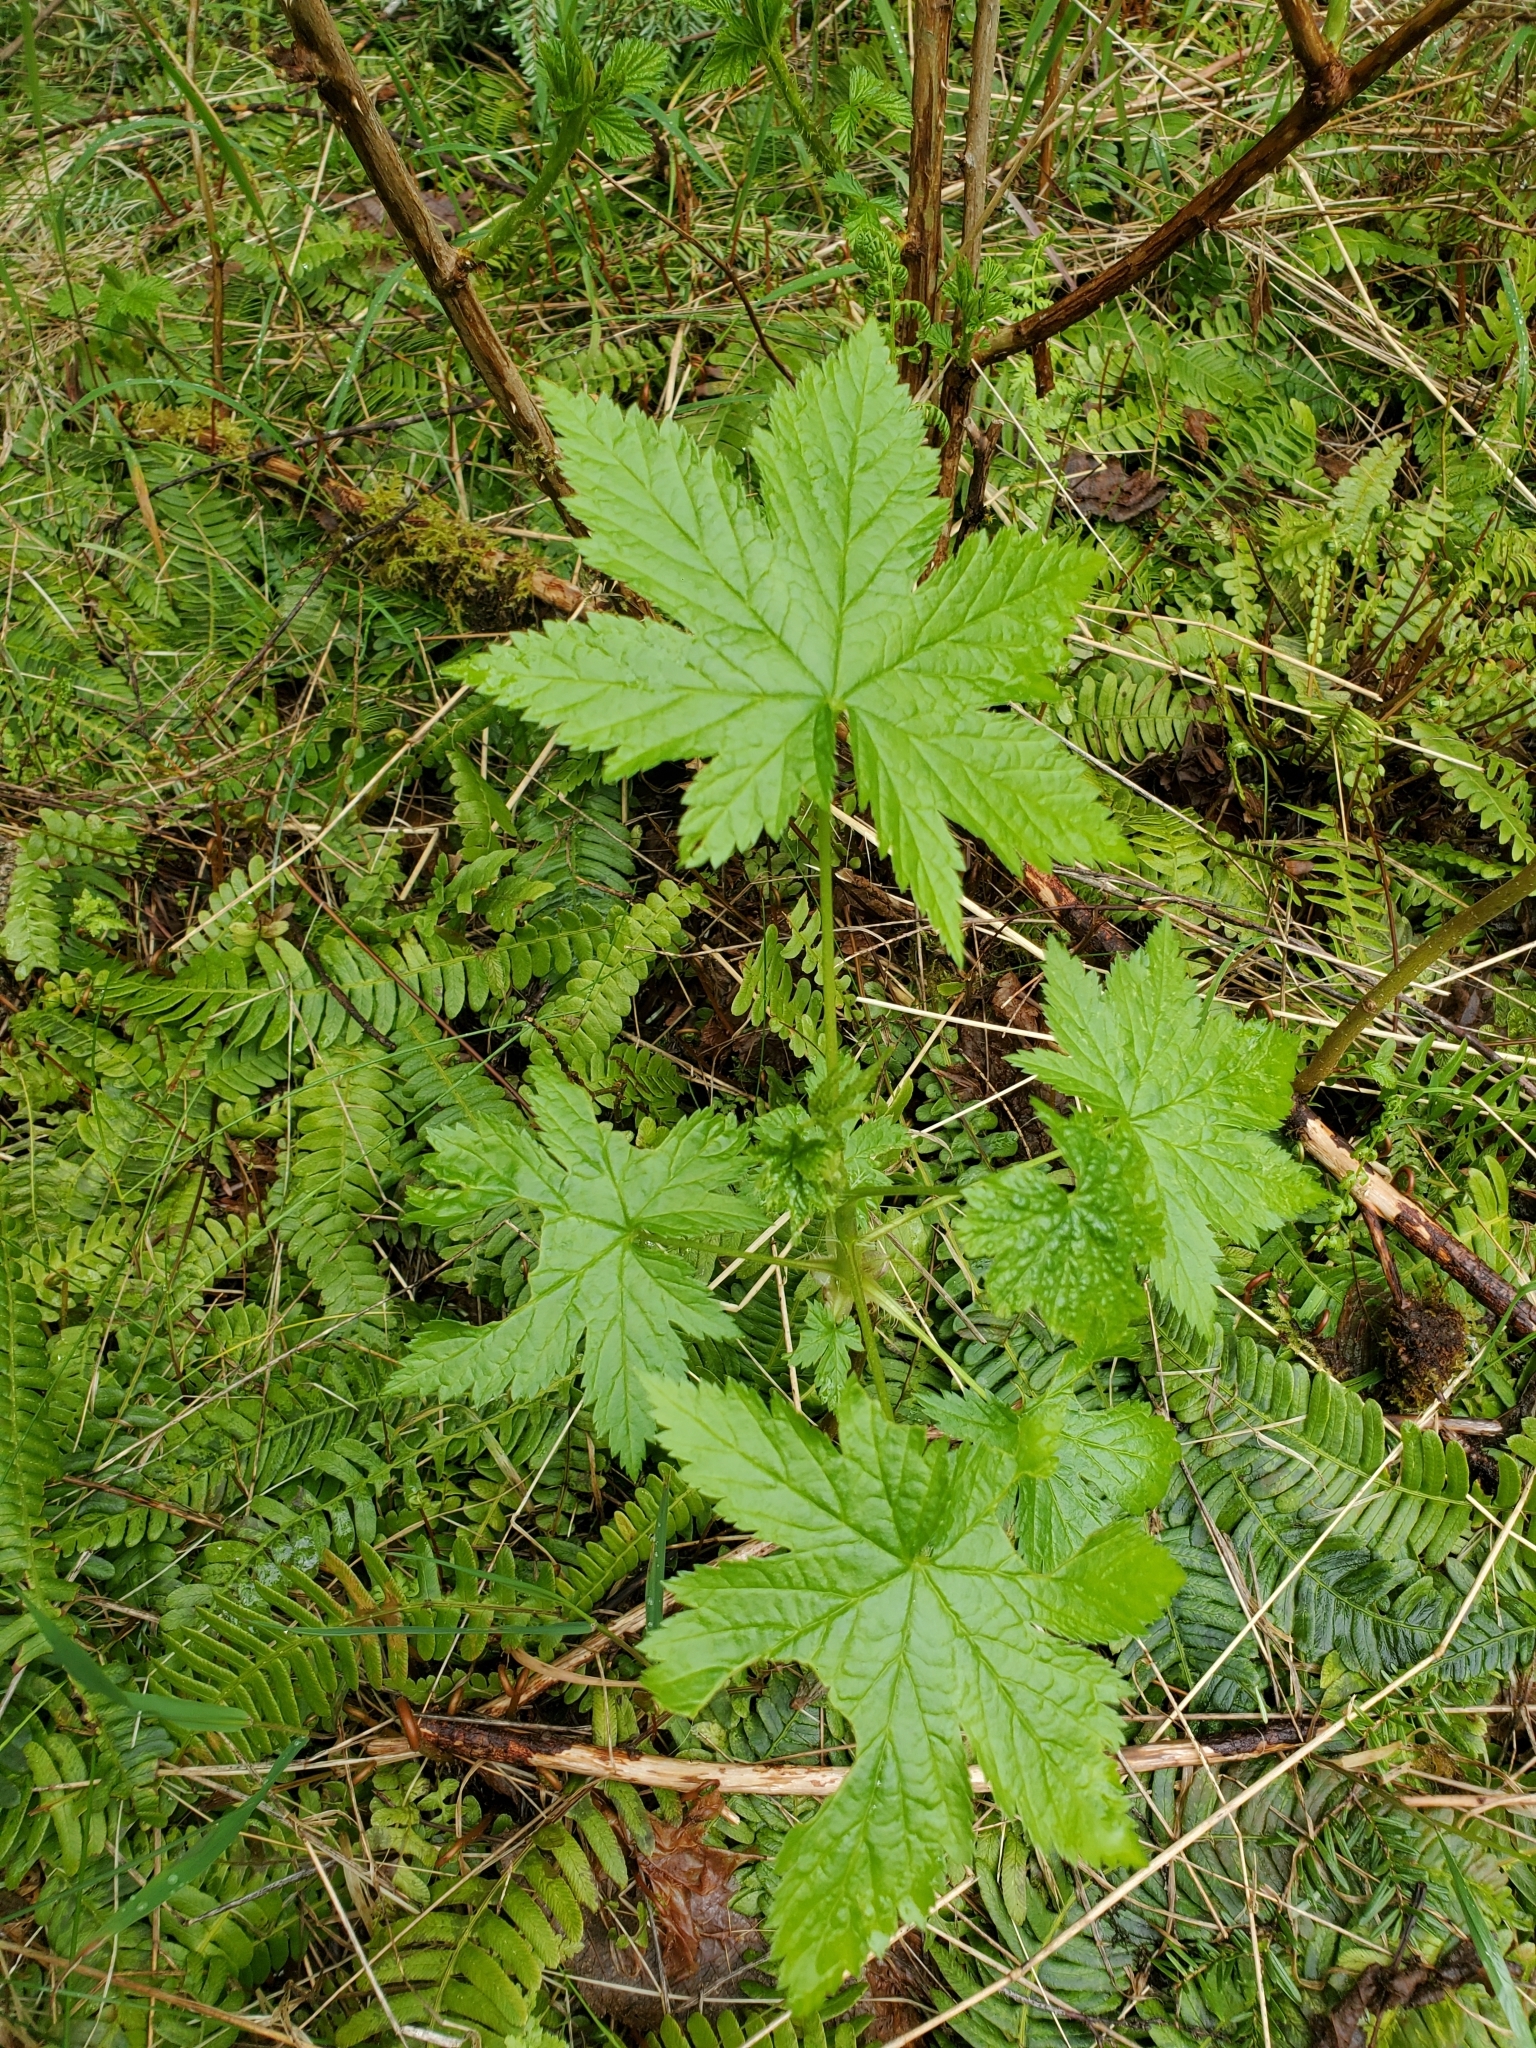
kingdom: Plantae
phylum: Tracheophyta
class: Magnoliopsida
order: Saxifragales
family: Grossulariaceae
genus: Ribes
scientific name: Ribes bracteosum
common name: California black currant
